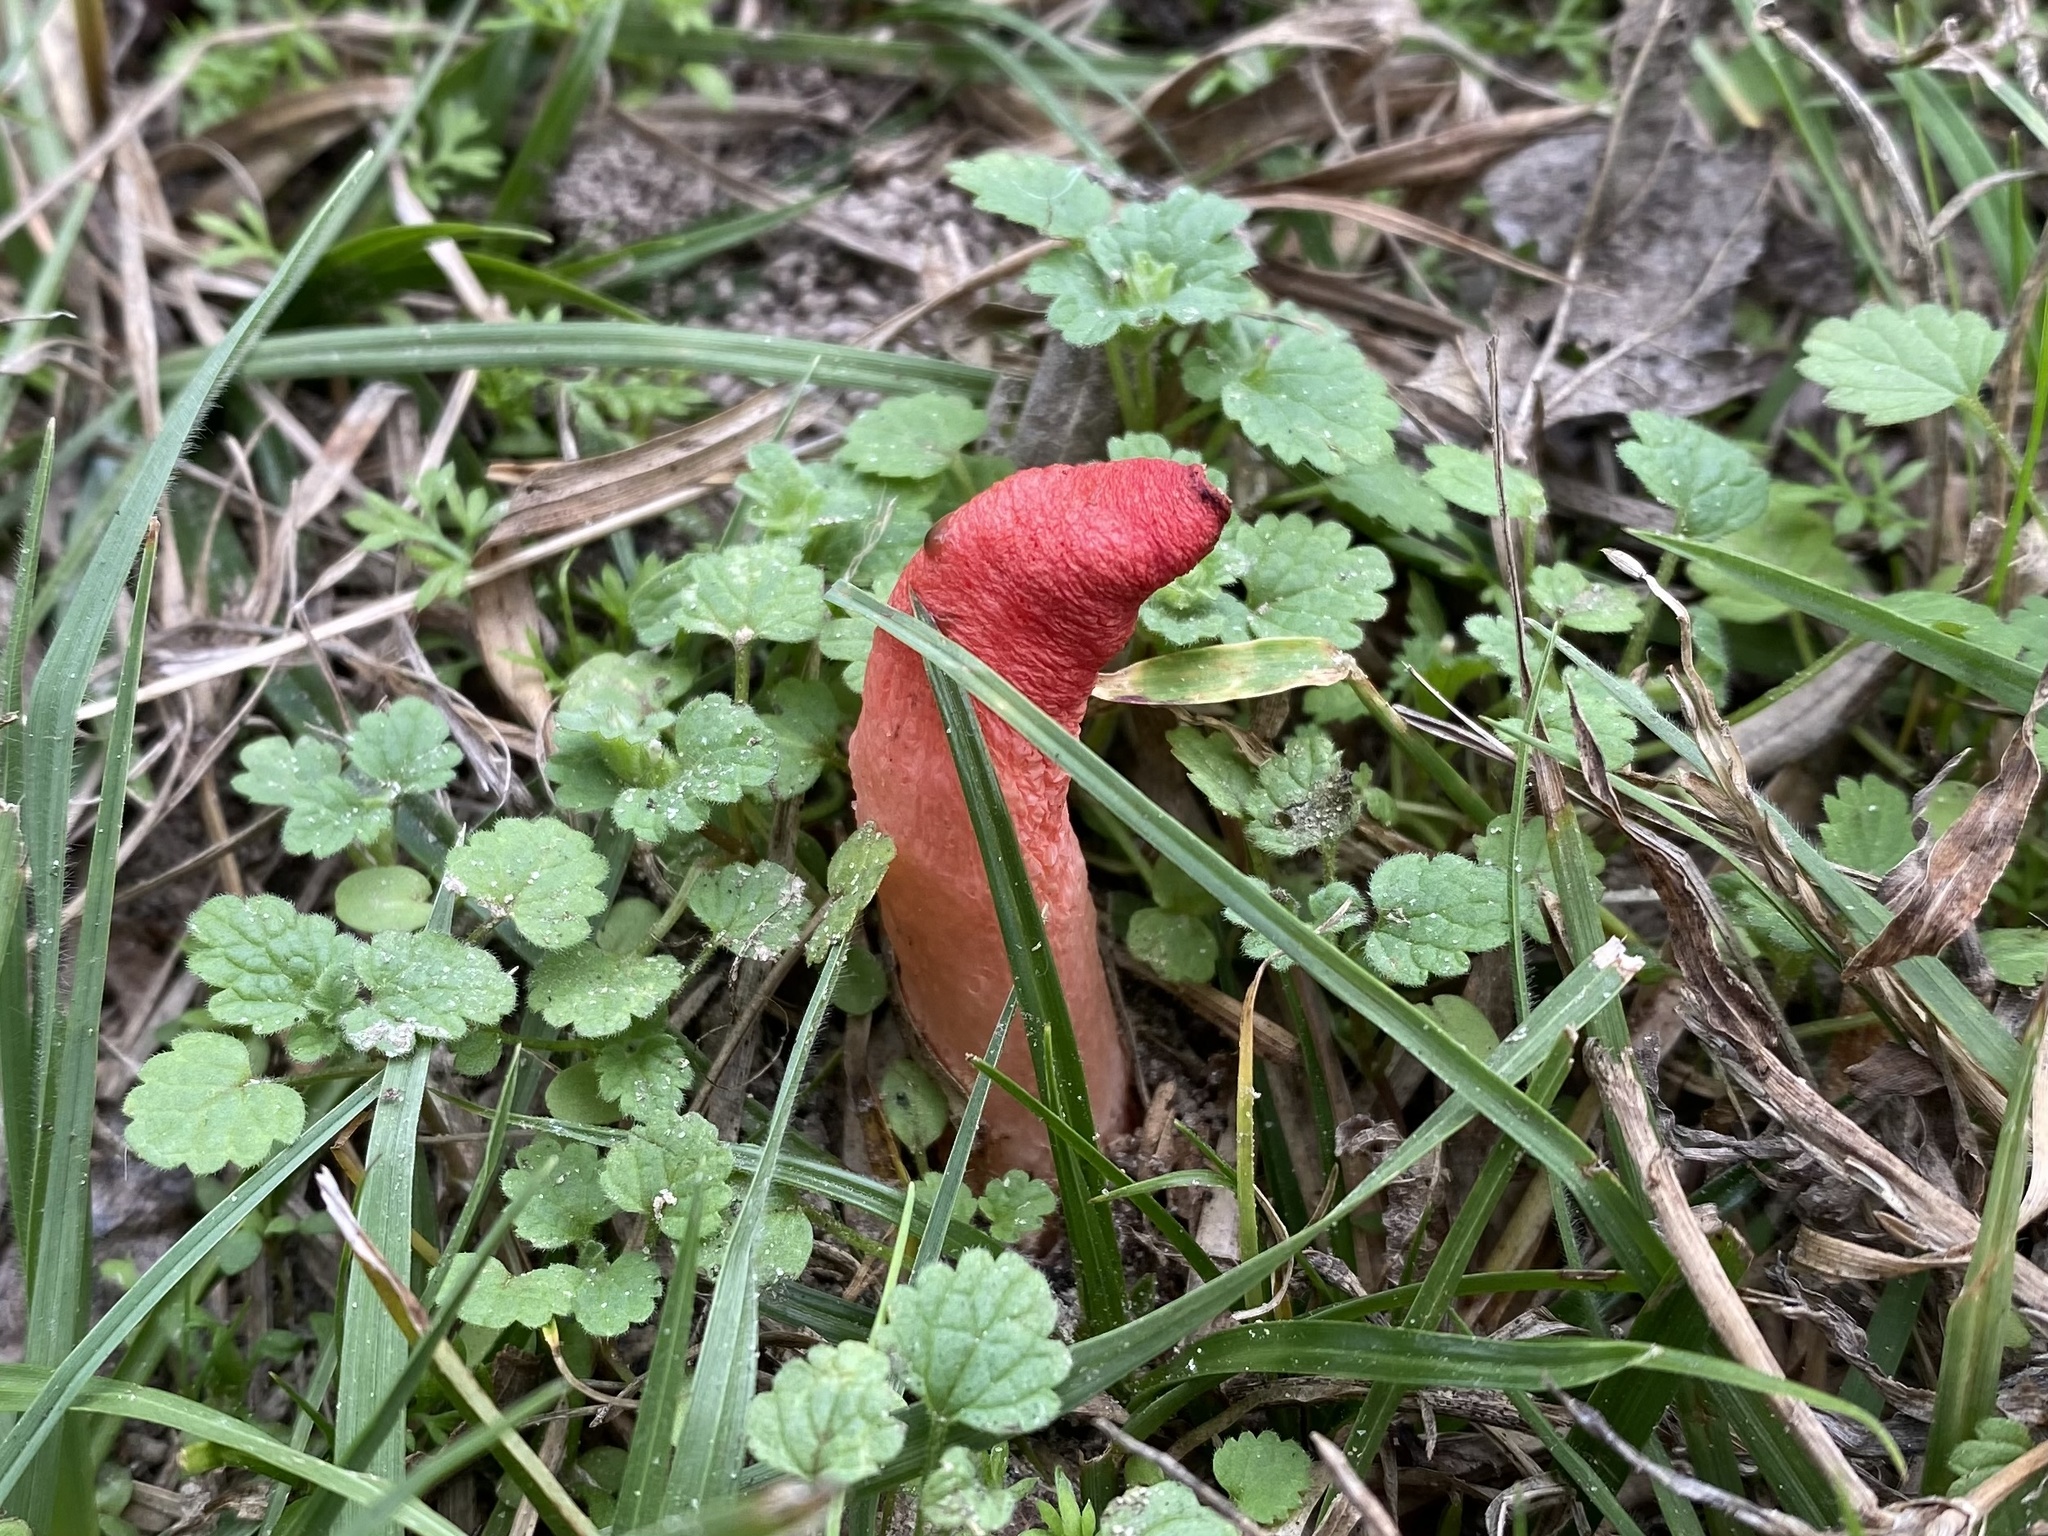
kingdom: Fungi
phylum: Basidiomycota
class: Agaricomycetes
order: Phallales
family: Phallaceae
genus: Mutinus
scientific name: Mutinus elegans
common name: Devil's dipstick
